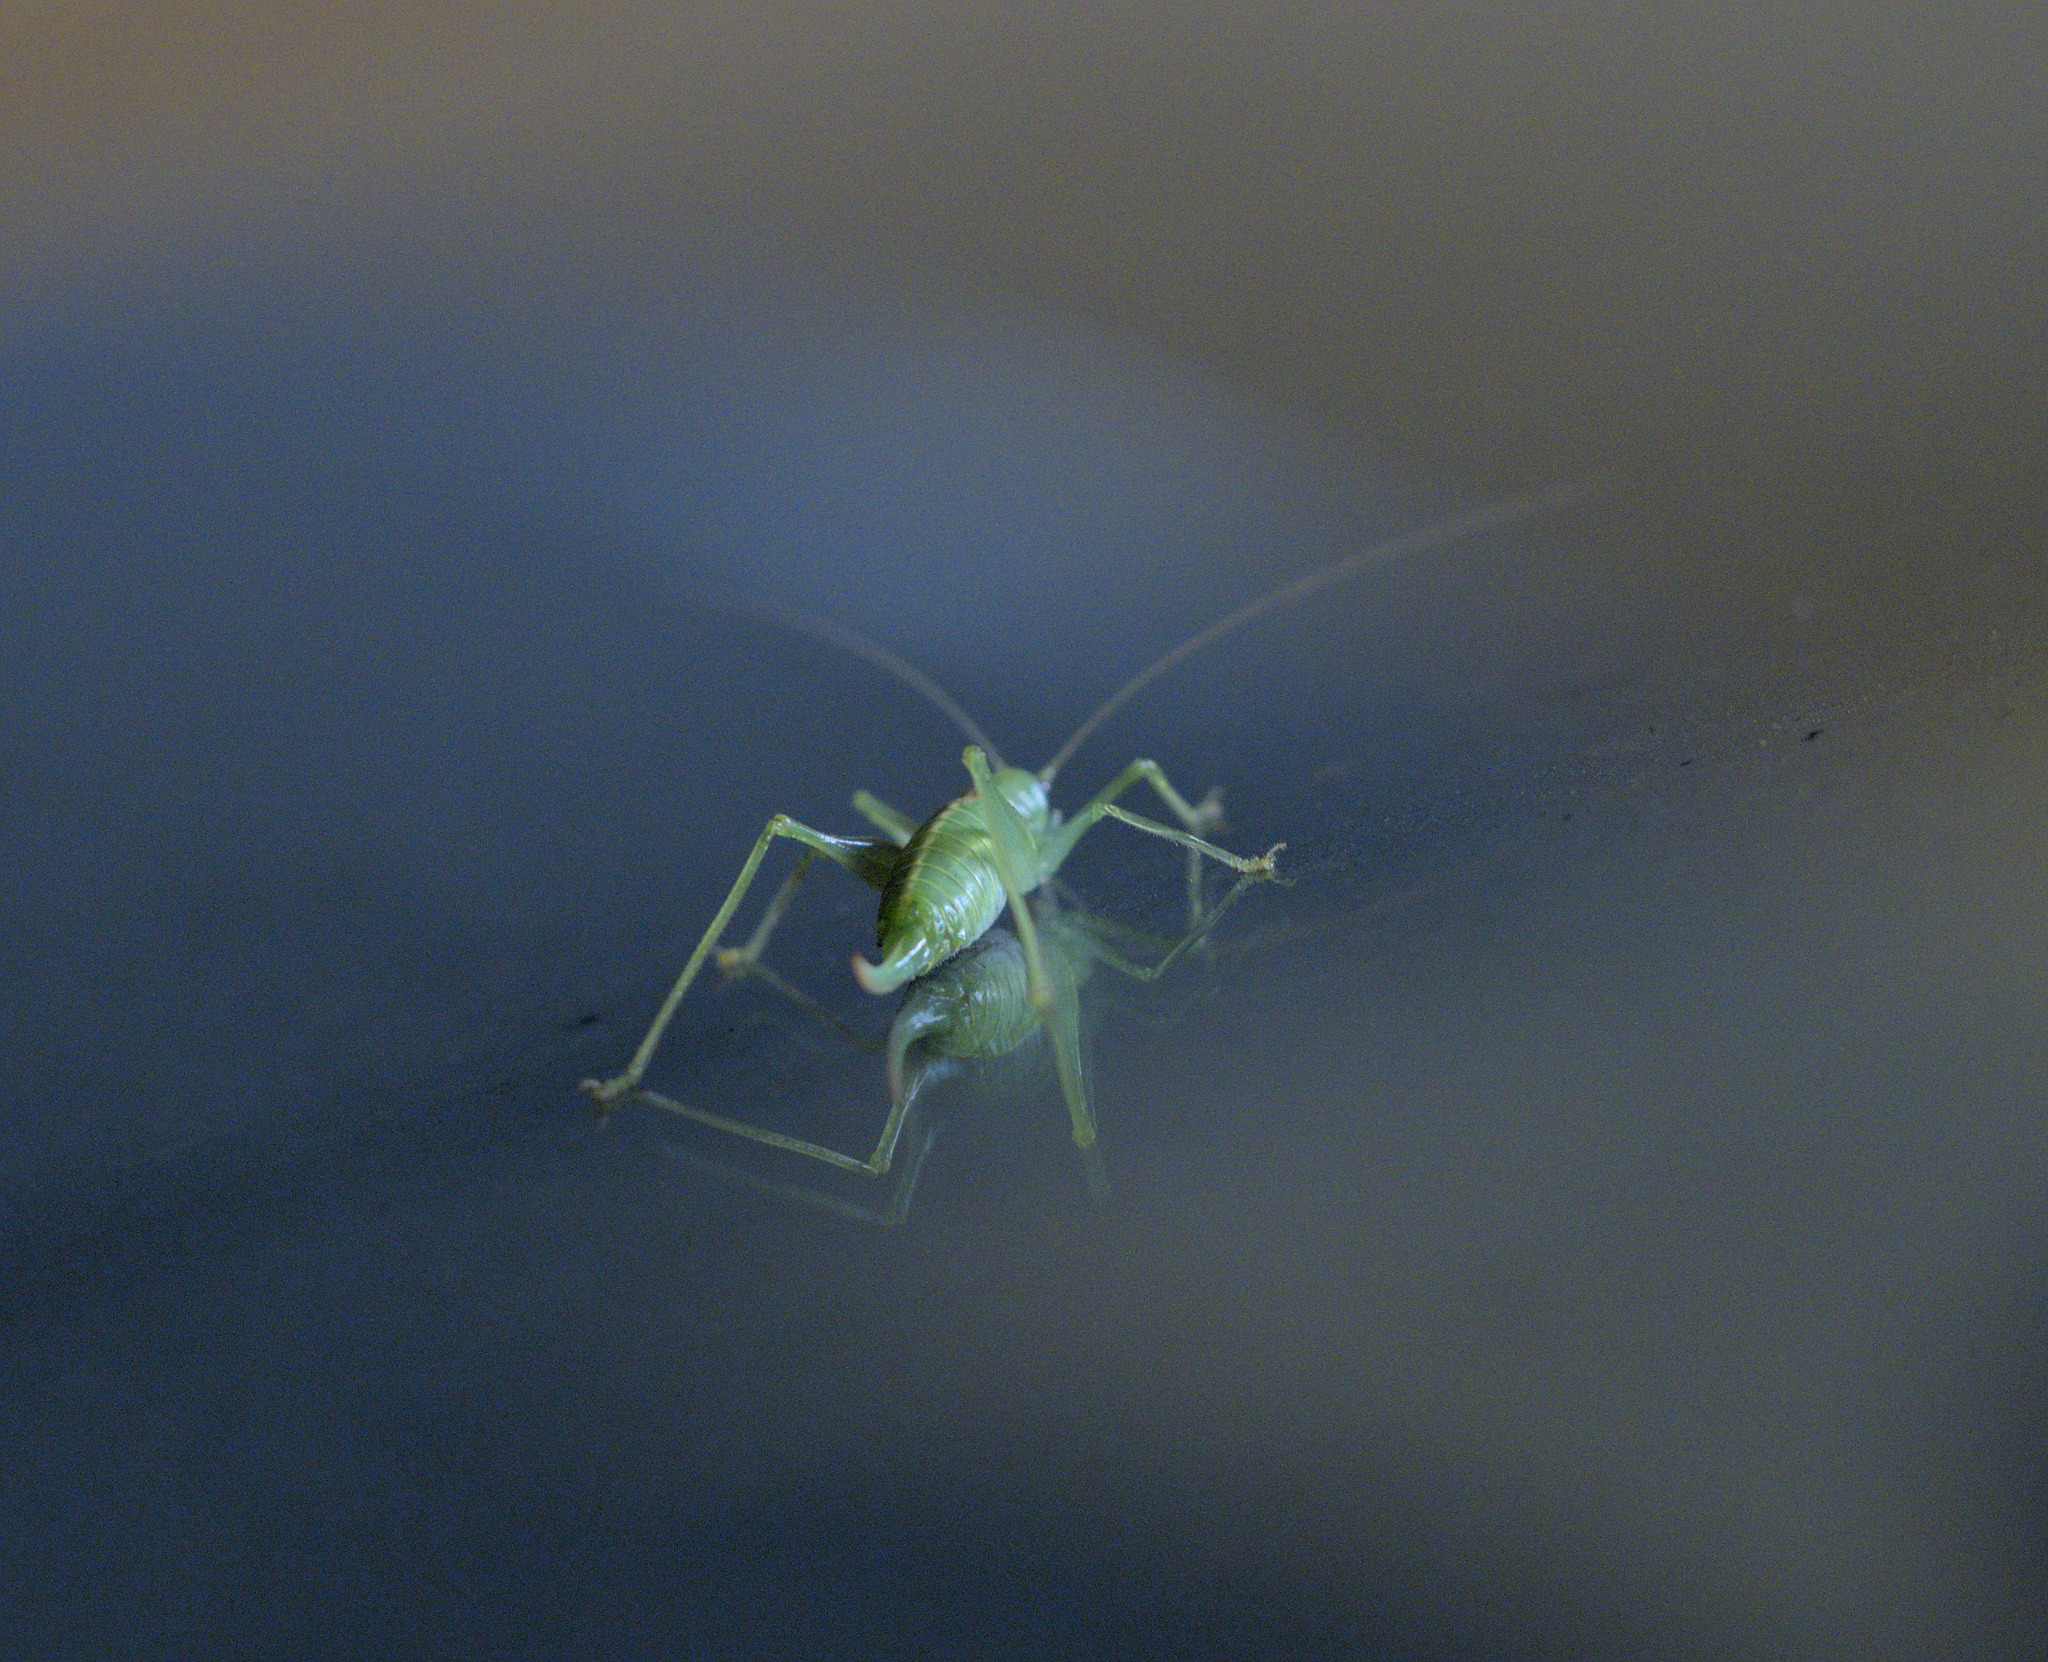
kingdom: Animalia
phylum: Arthropoda
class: Insecta
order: Orthoptera
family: Tettigoniidae
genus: Meconema
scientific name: Meconema meridionale
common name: Southern oak bush-cricket
